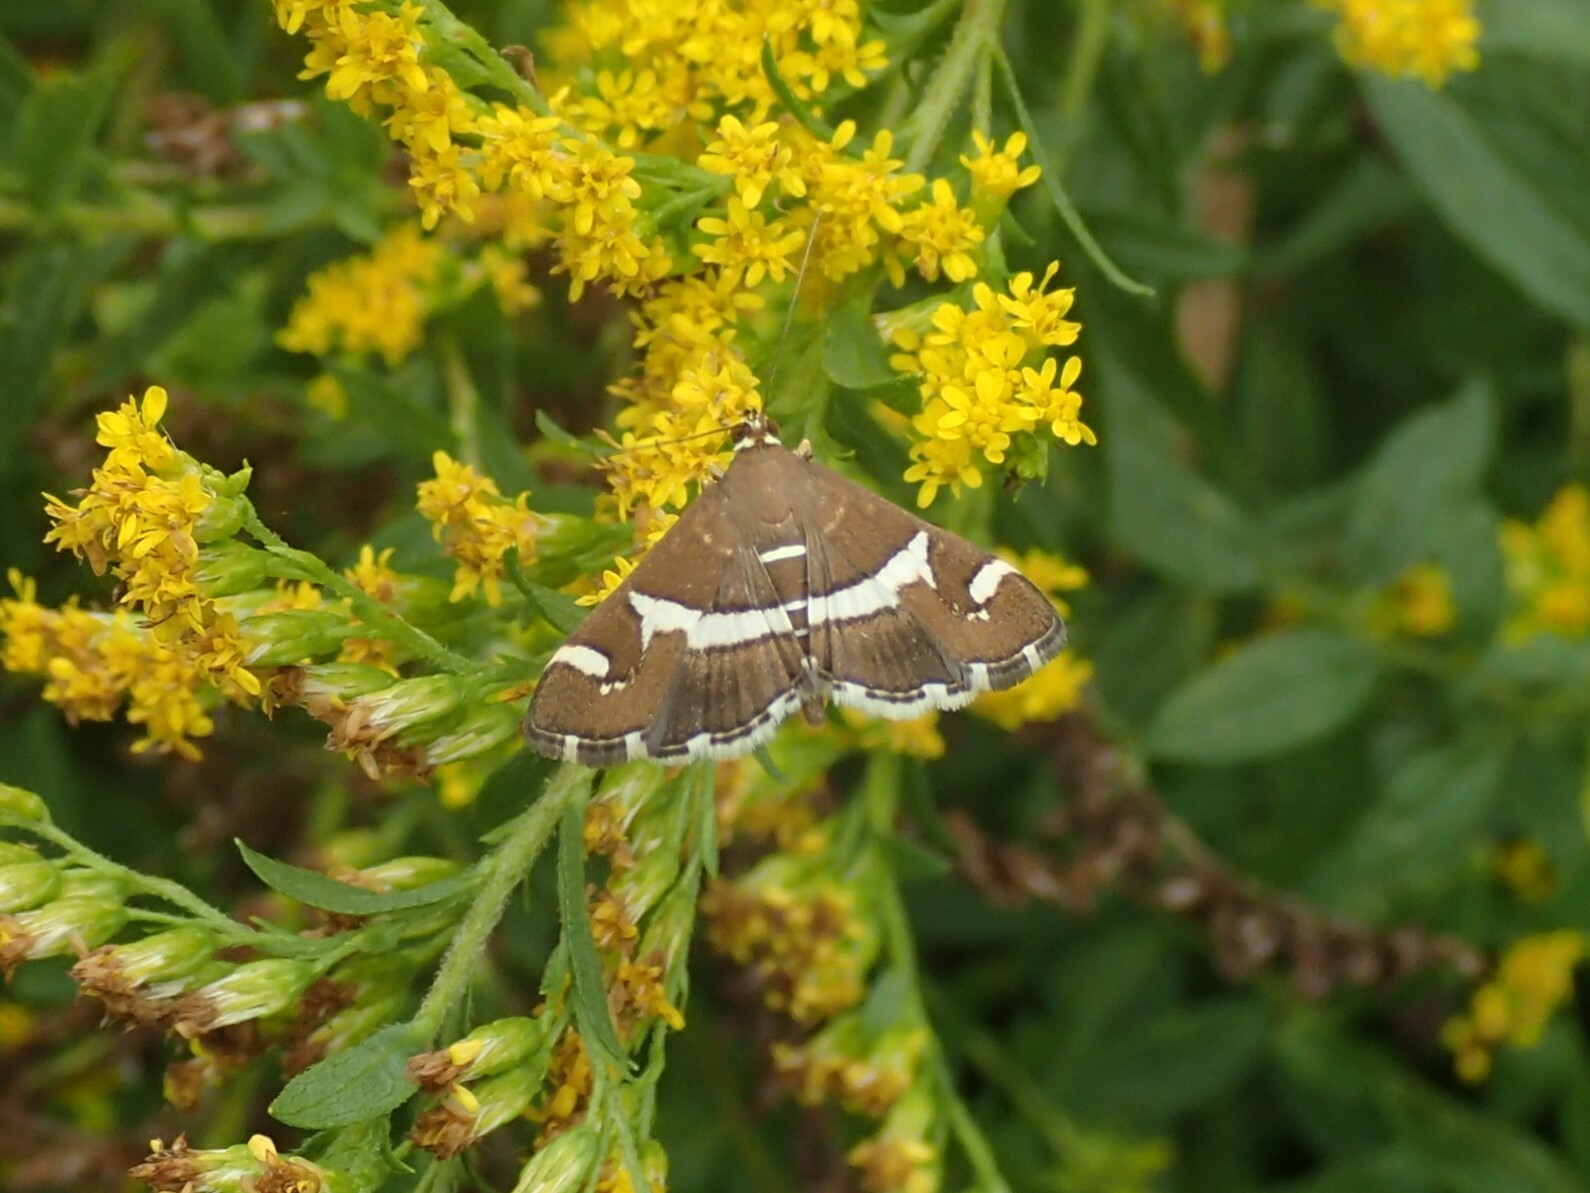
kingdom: Animalia
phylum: Arthropoda
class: Insecta
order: Lepidoptera
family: Crambidae
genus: Spoladea
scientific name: Spoladea recurvalis
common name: Beet webworm moth
